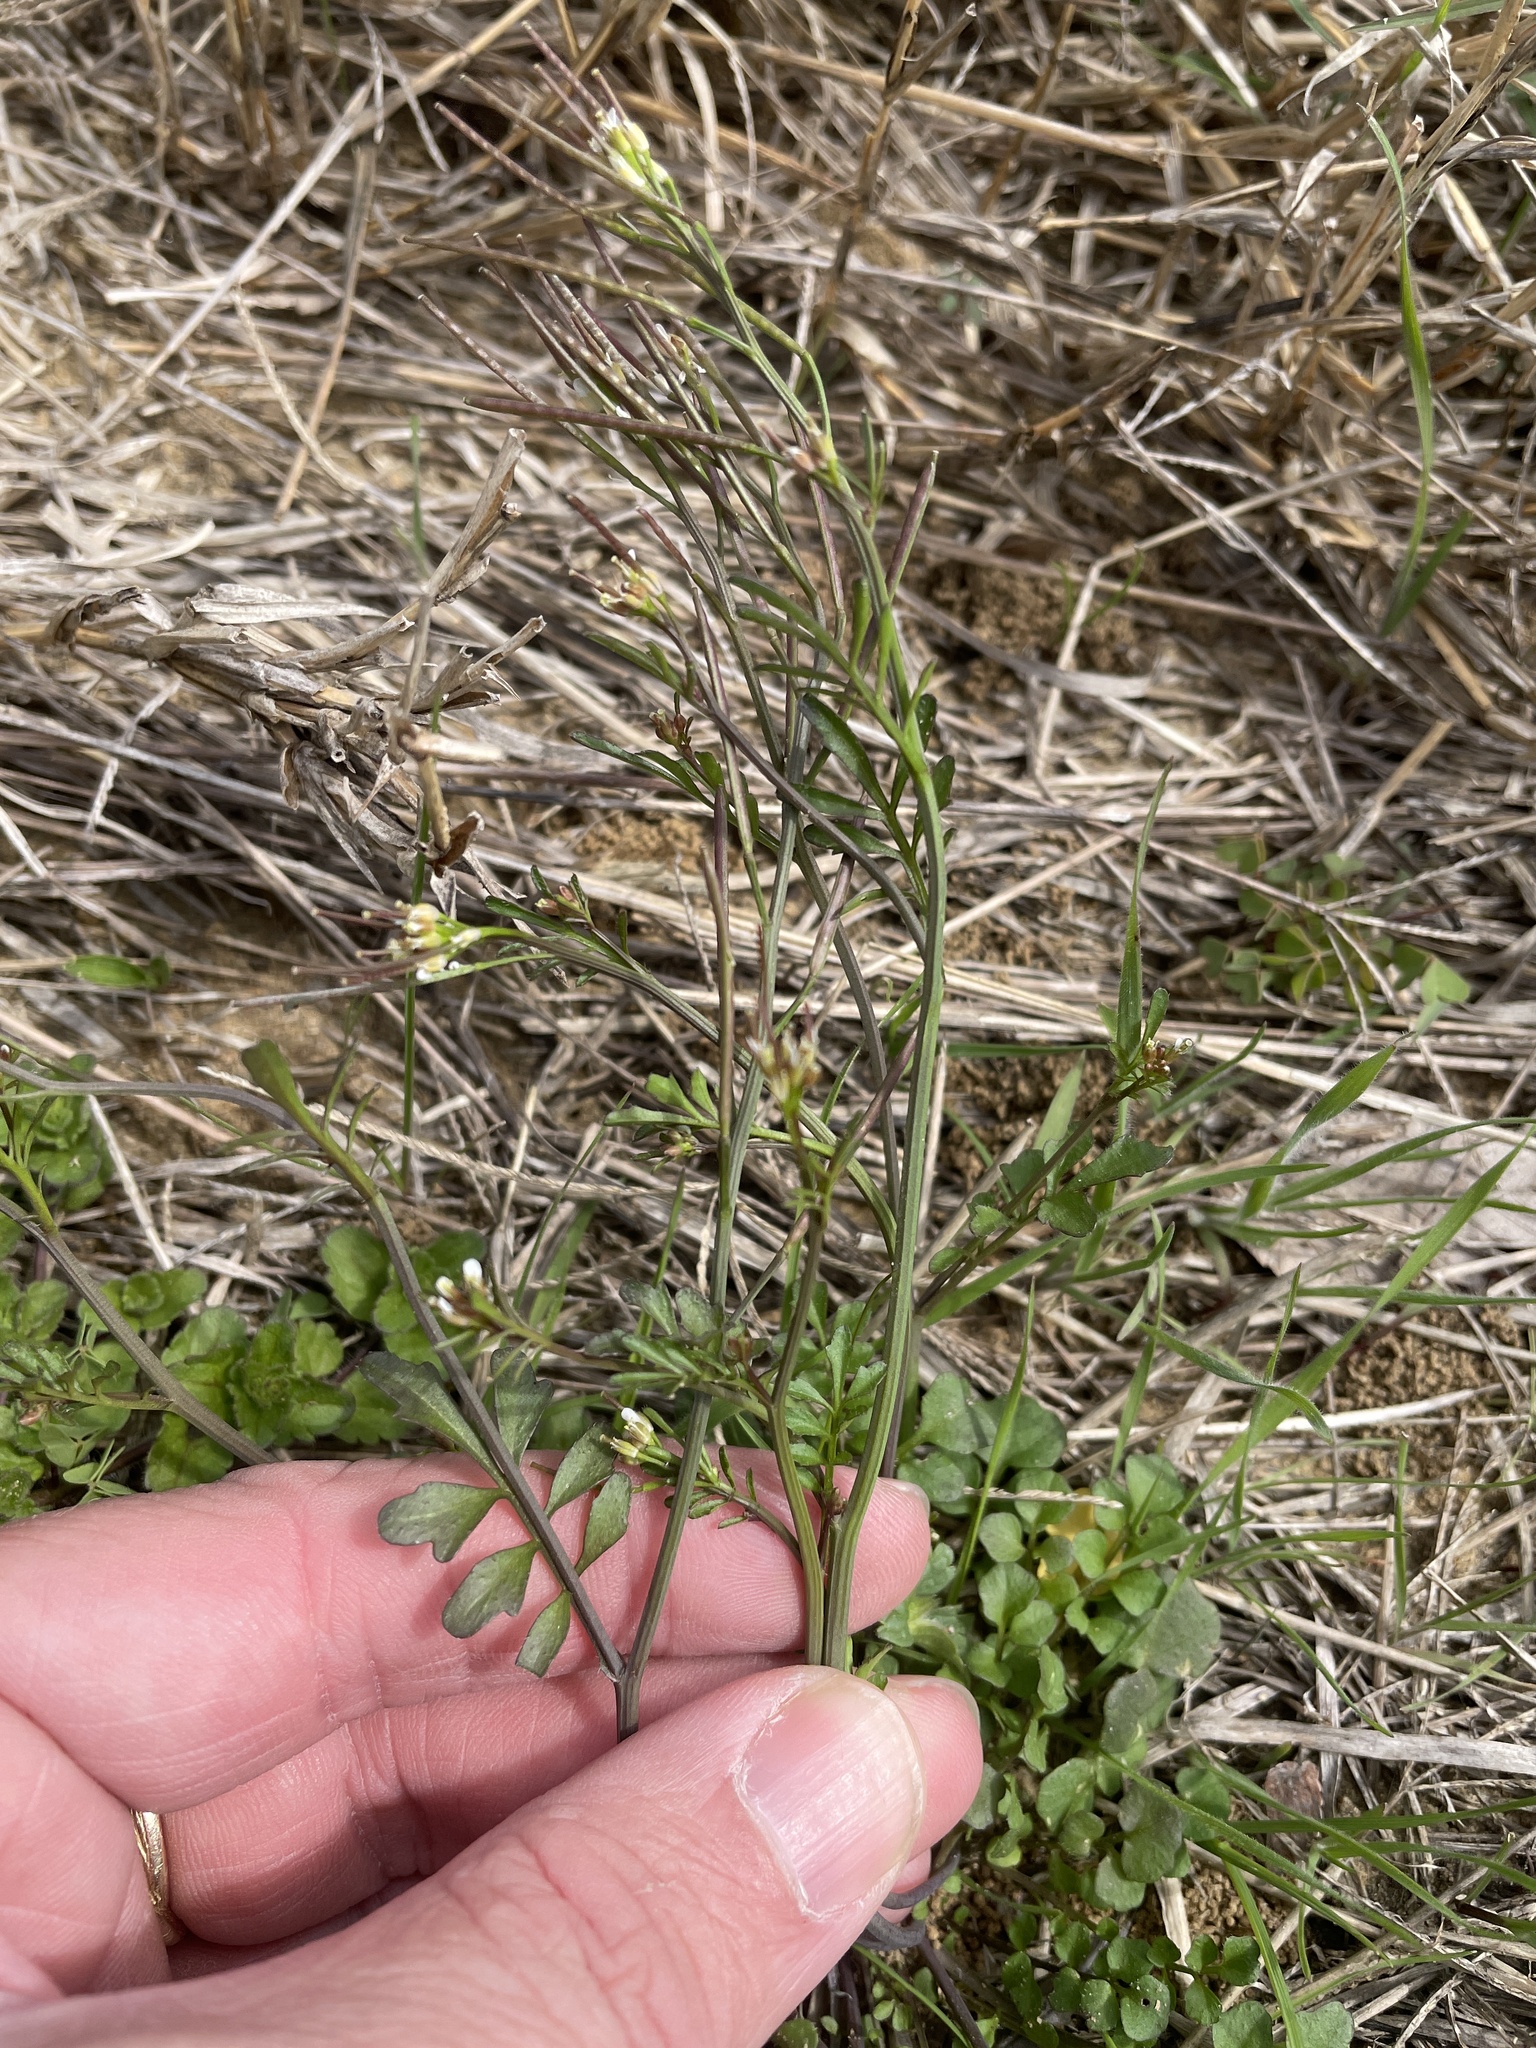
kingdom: Plantae
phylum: Tracheophyta
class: Magnoliopsida
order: Brassicales
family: Brassicaceae
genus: Cardamine
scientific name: Cardamine hirsuta
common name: Hairy bittercress
